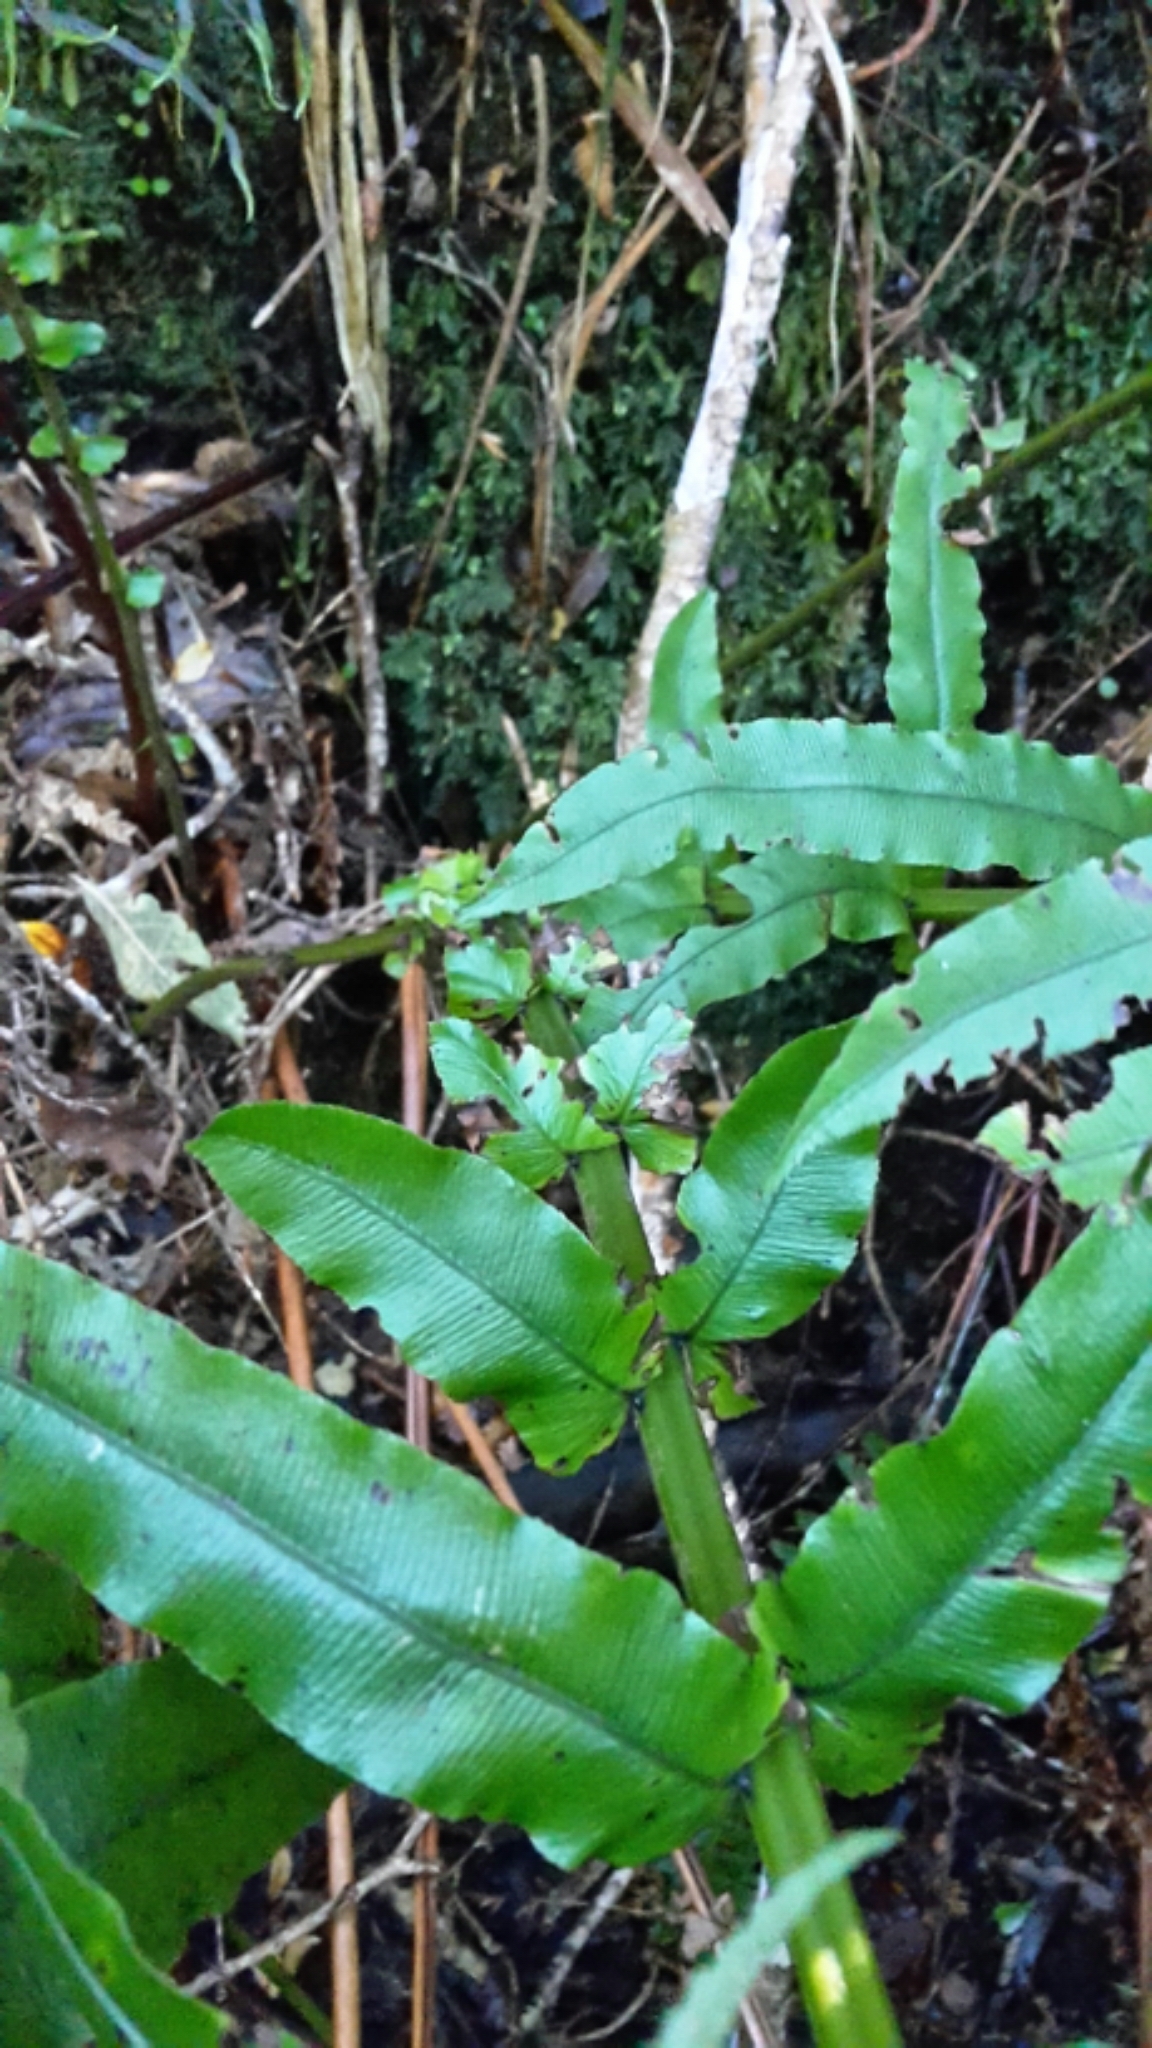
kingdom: Plantae
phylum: Tracheophyta
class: Polypodiopsida
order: Polypodiales
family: Blechnaceae
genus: Parablechnum
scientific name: Parablechnum novae-zelandiae
